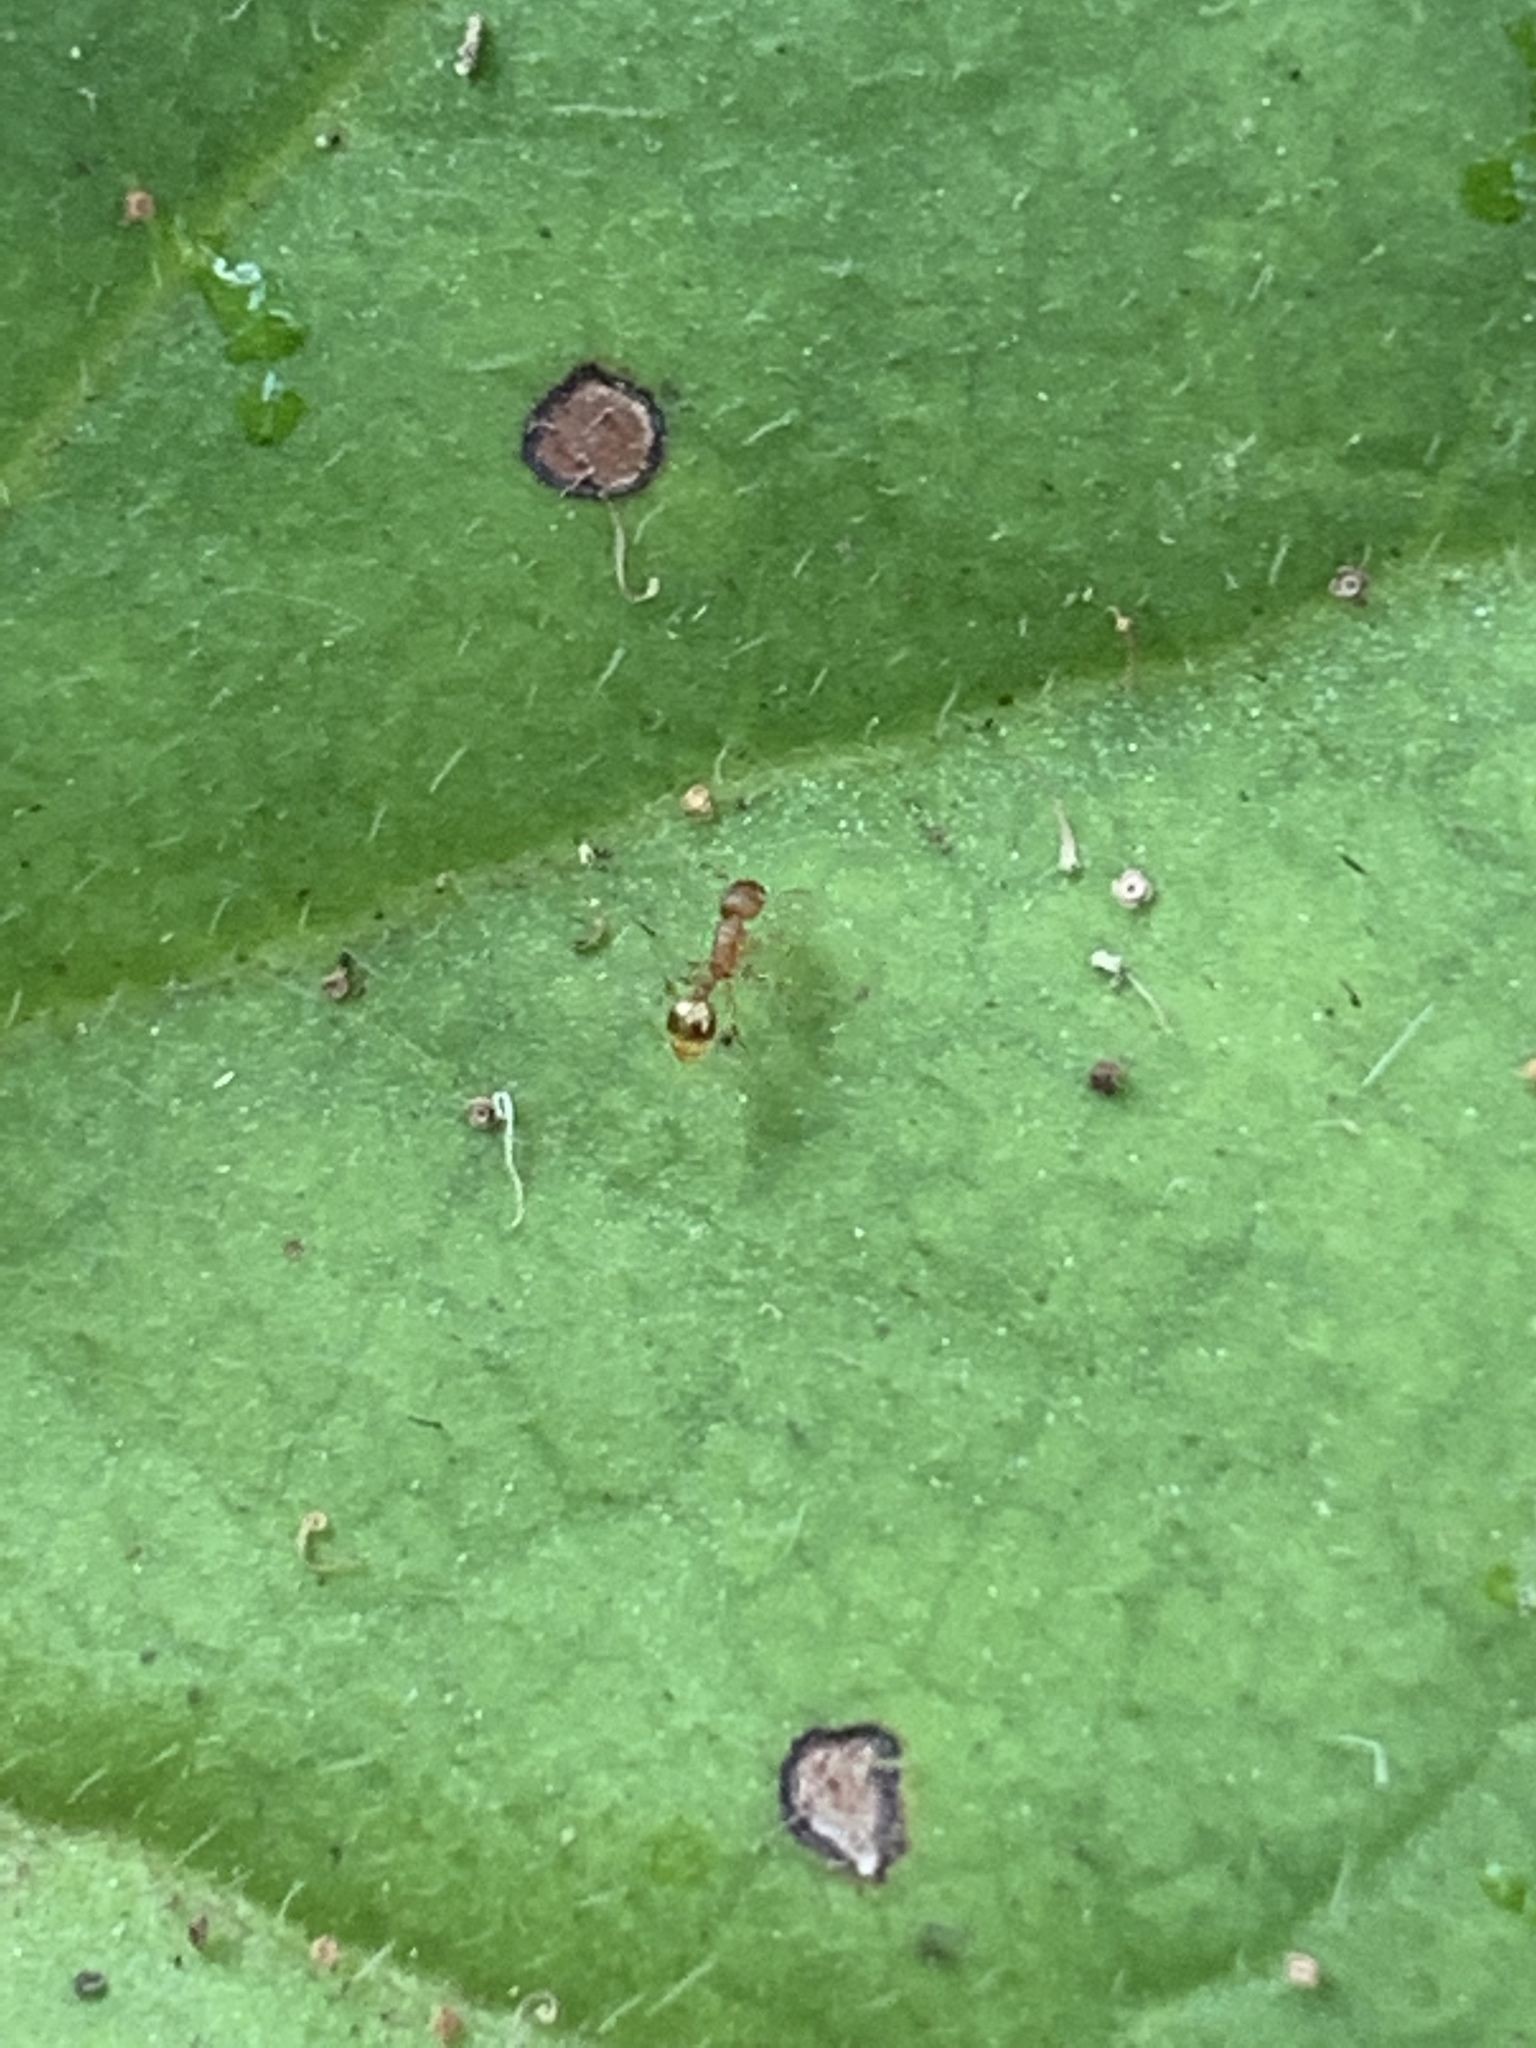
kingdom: Animalia
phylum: Arthropoda
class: Insecta
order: Hymenoptera
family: Formicidae
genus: Temnothorax
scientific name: Temnothorax curvispinosus
